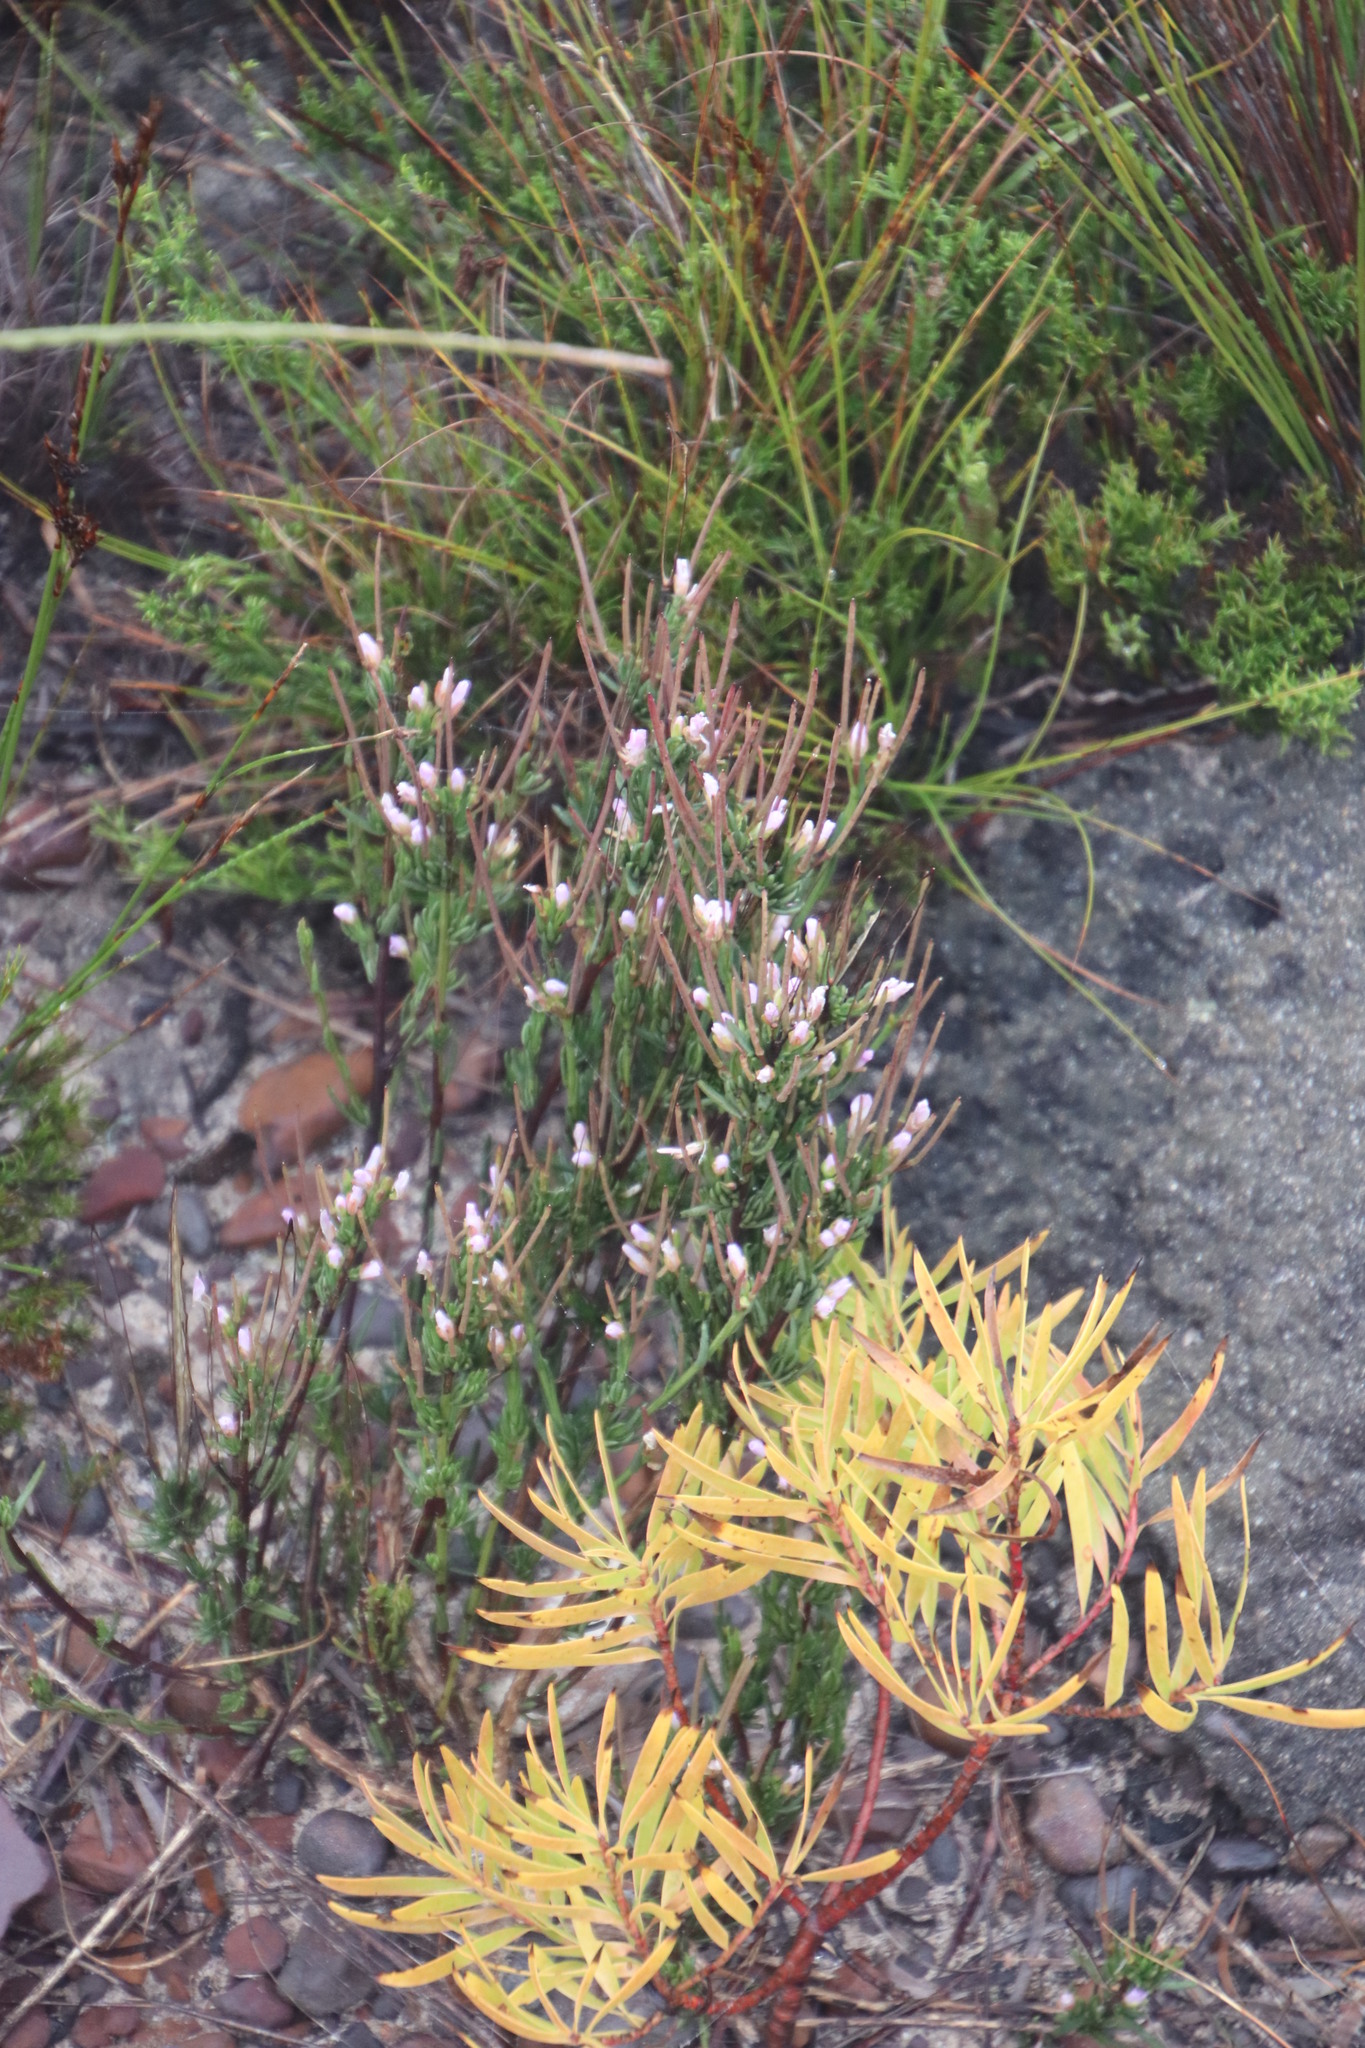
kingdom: Plantae
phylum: Tracheophyta
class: Magnoliopsida
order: Brassicales
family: Brassicaceae
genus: Heliophila
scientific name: Heliophila scoparia
